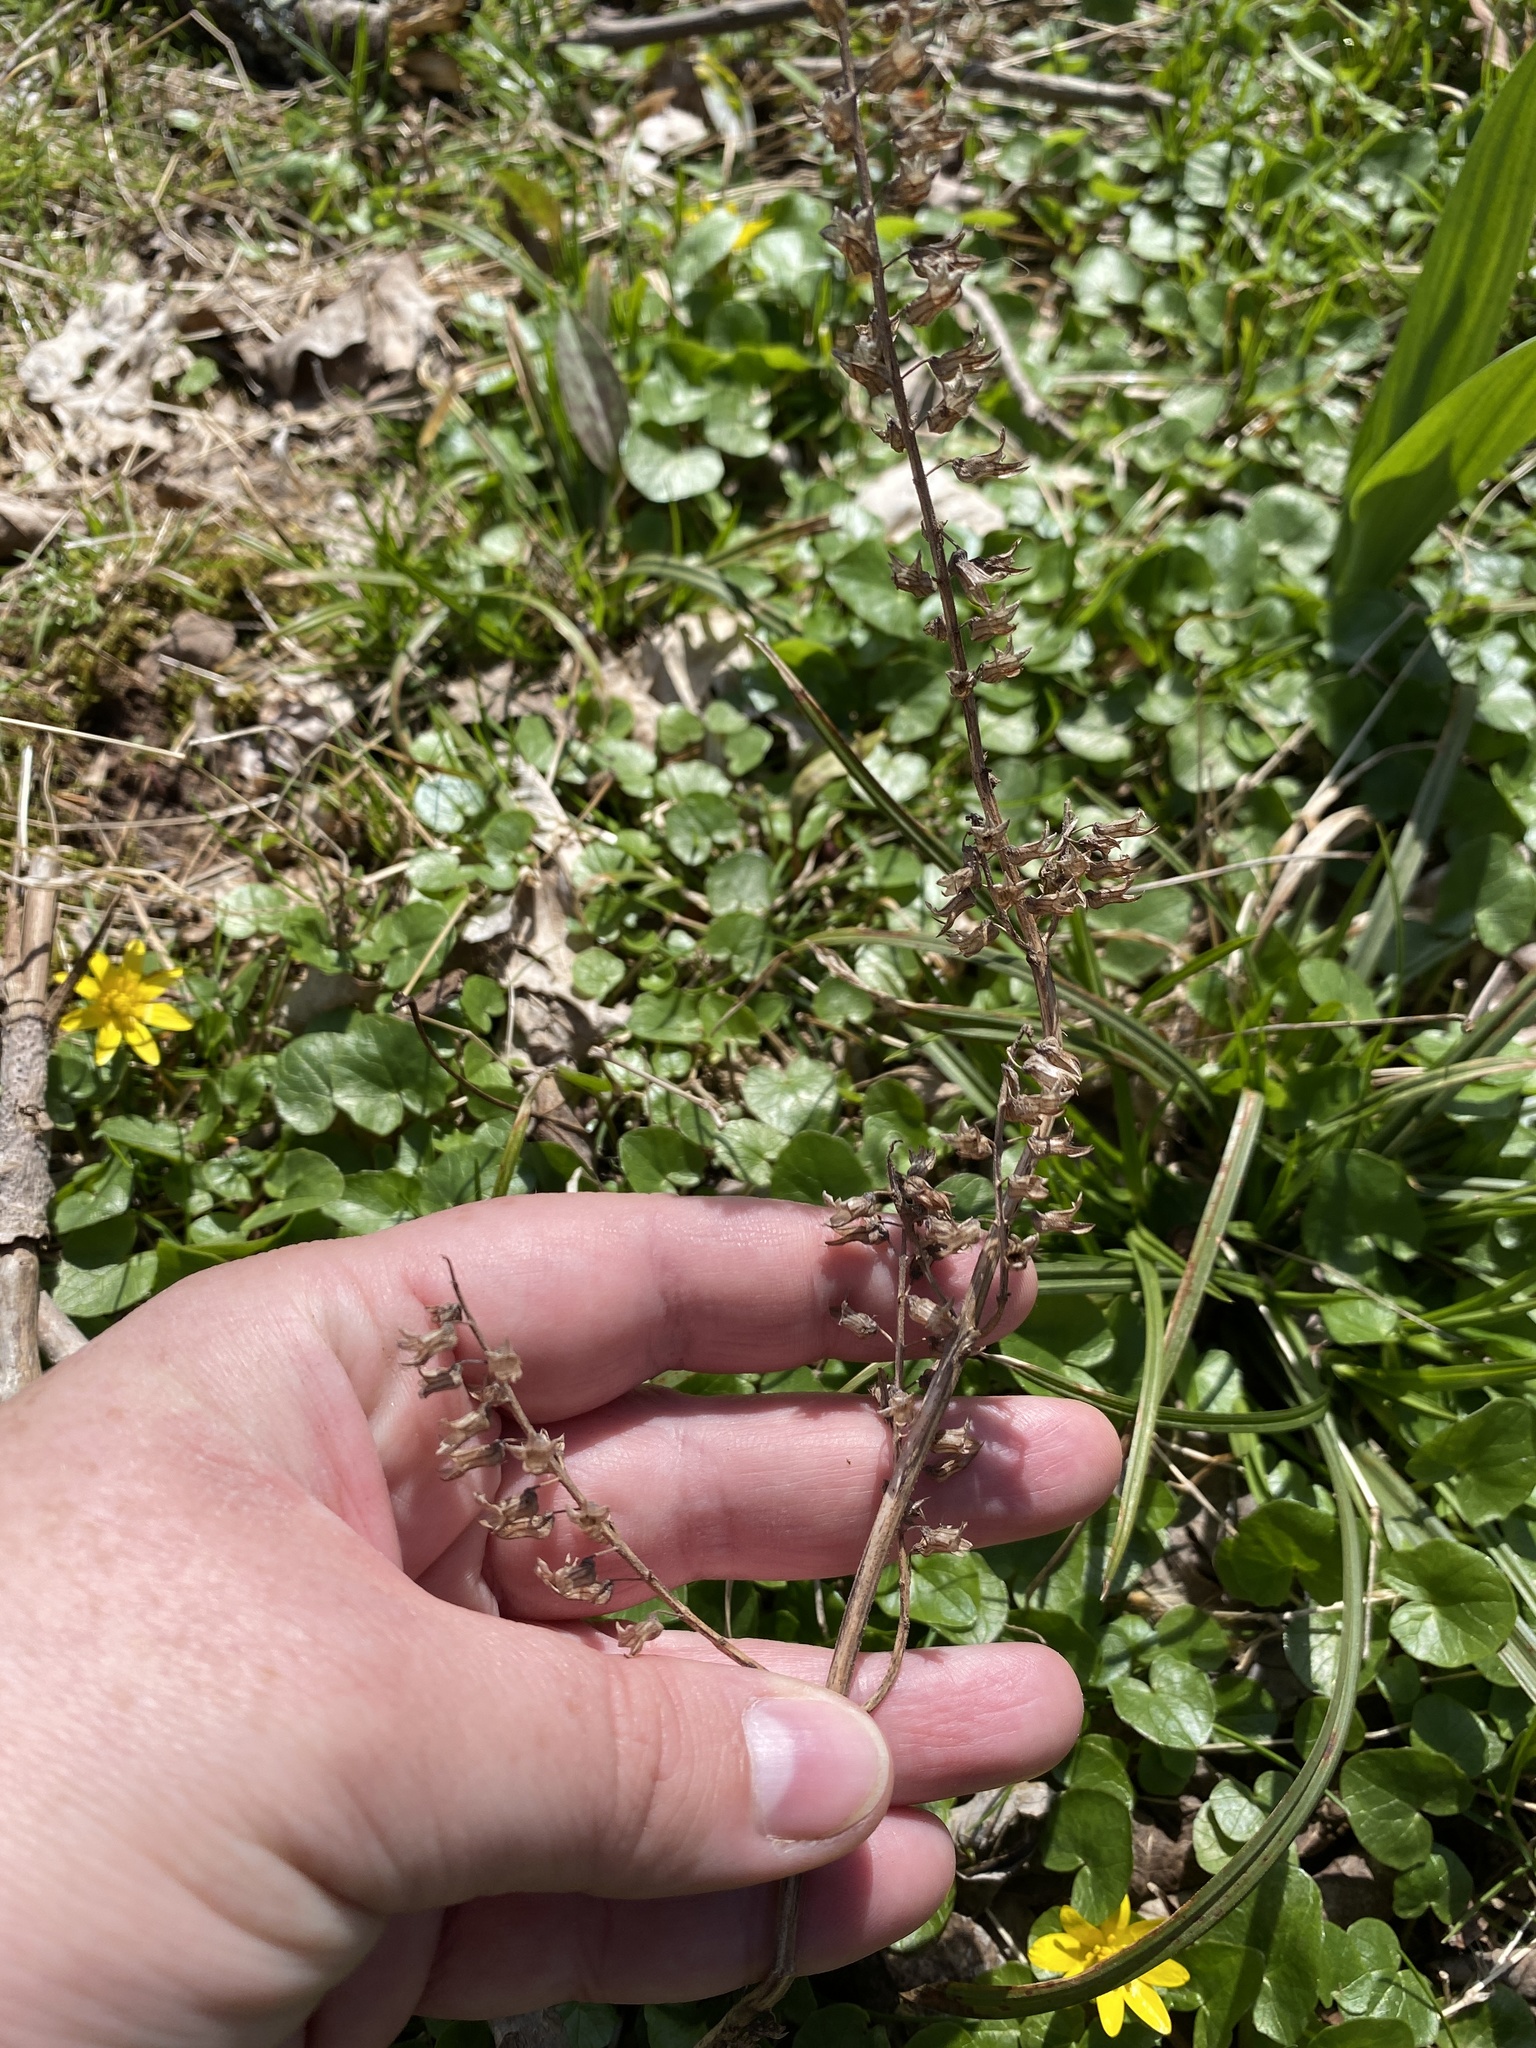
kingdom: Plantae
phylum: Tracheophyta
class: Magnoliopsida
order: Lamiales
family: Lamiaceae
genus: Perilla
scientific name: Perilla frutescens
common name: Perilla
